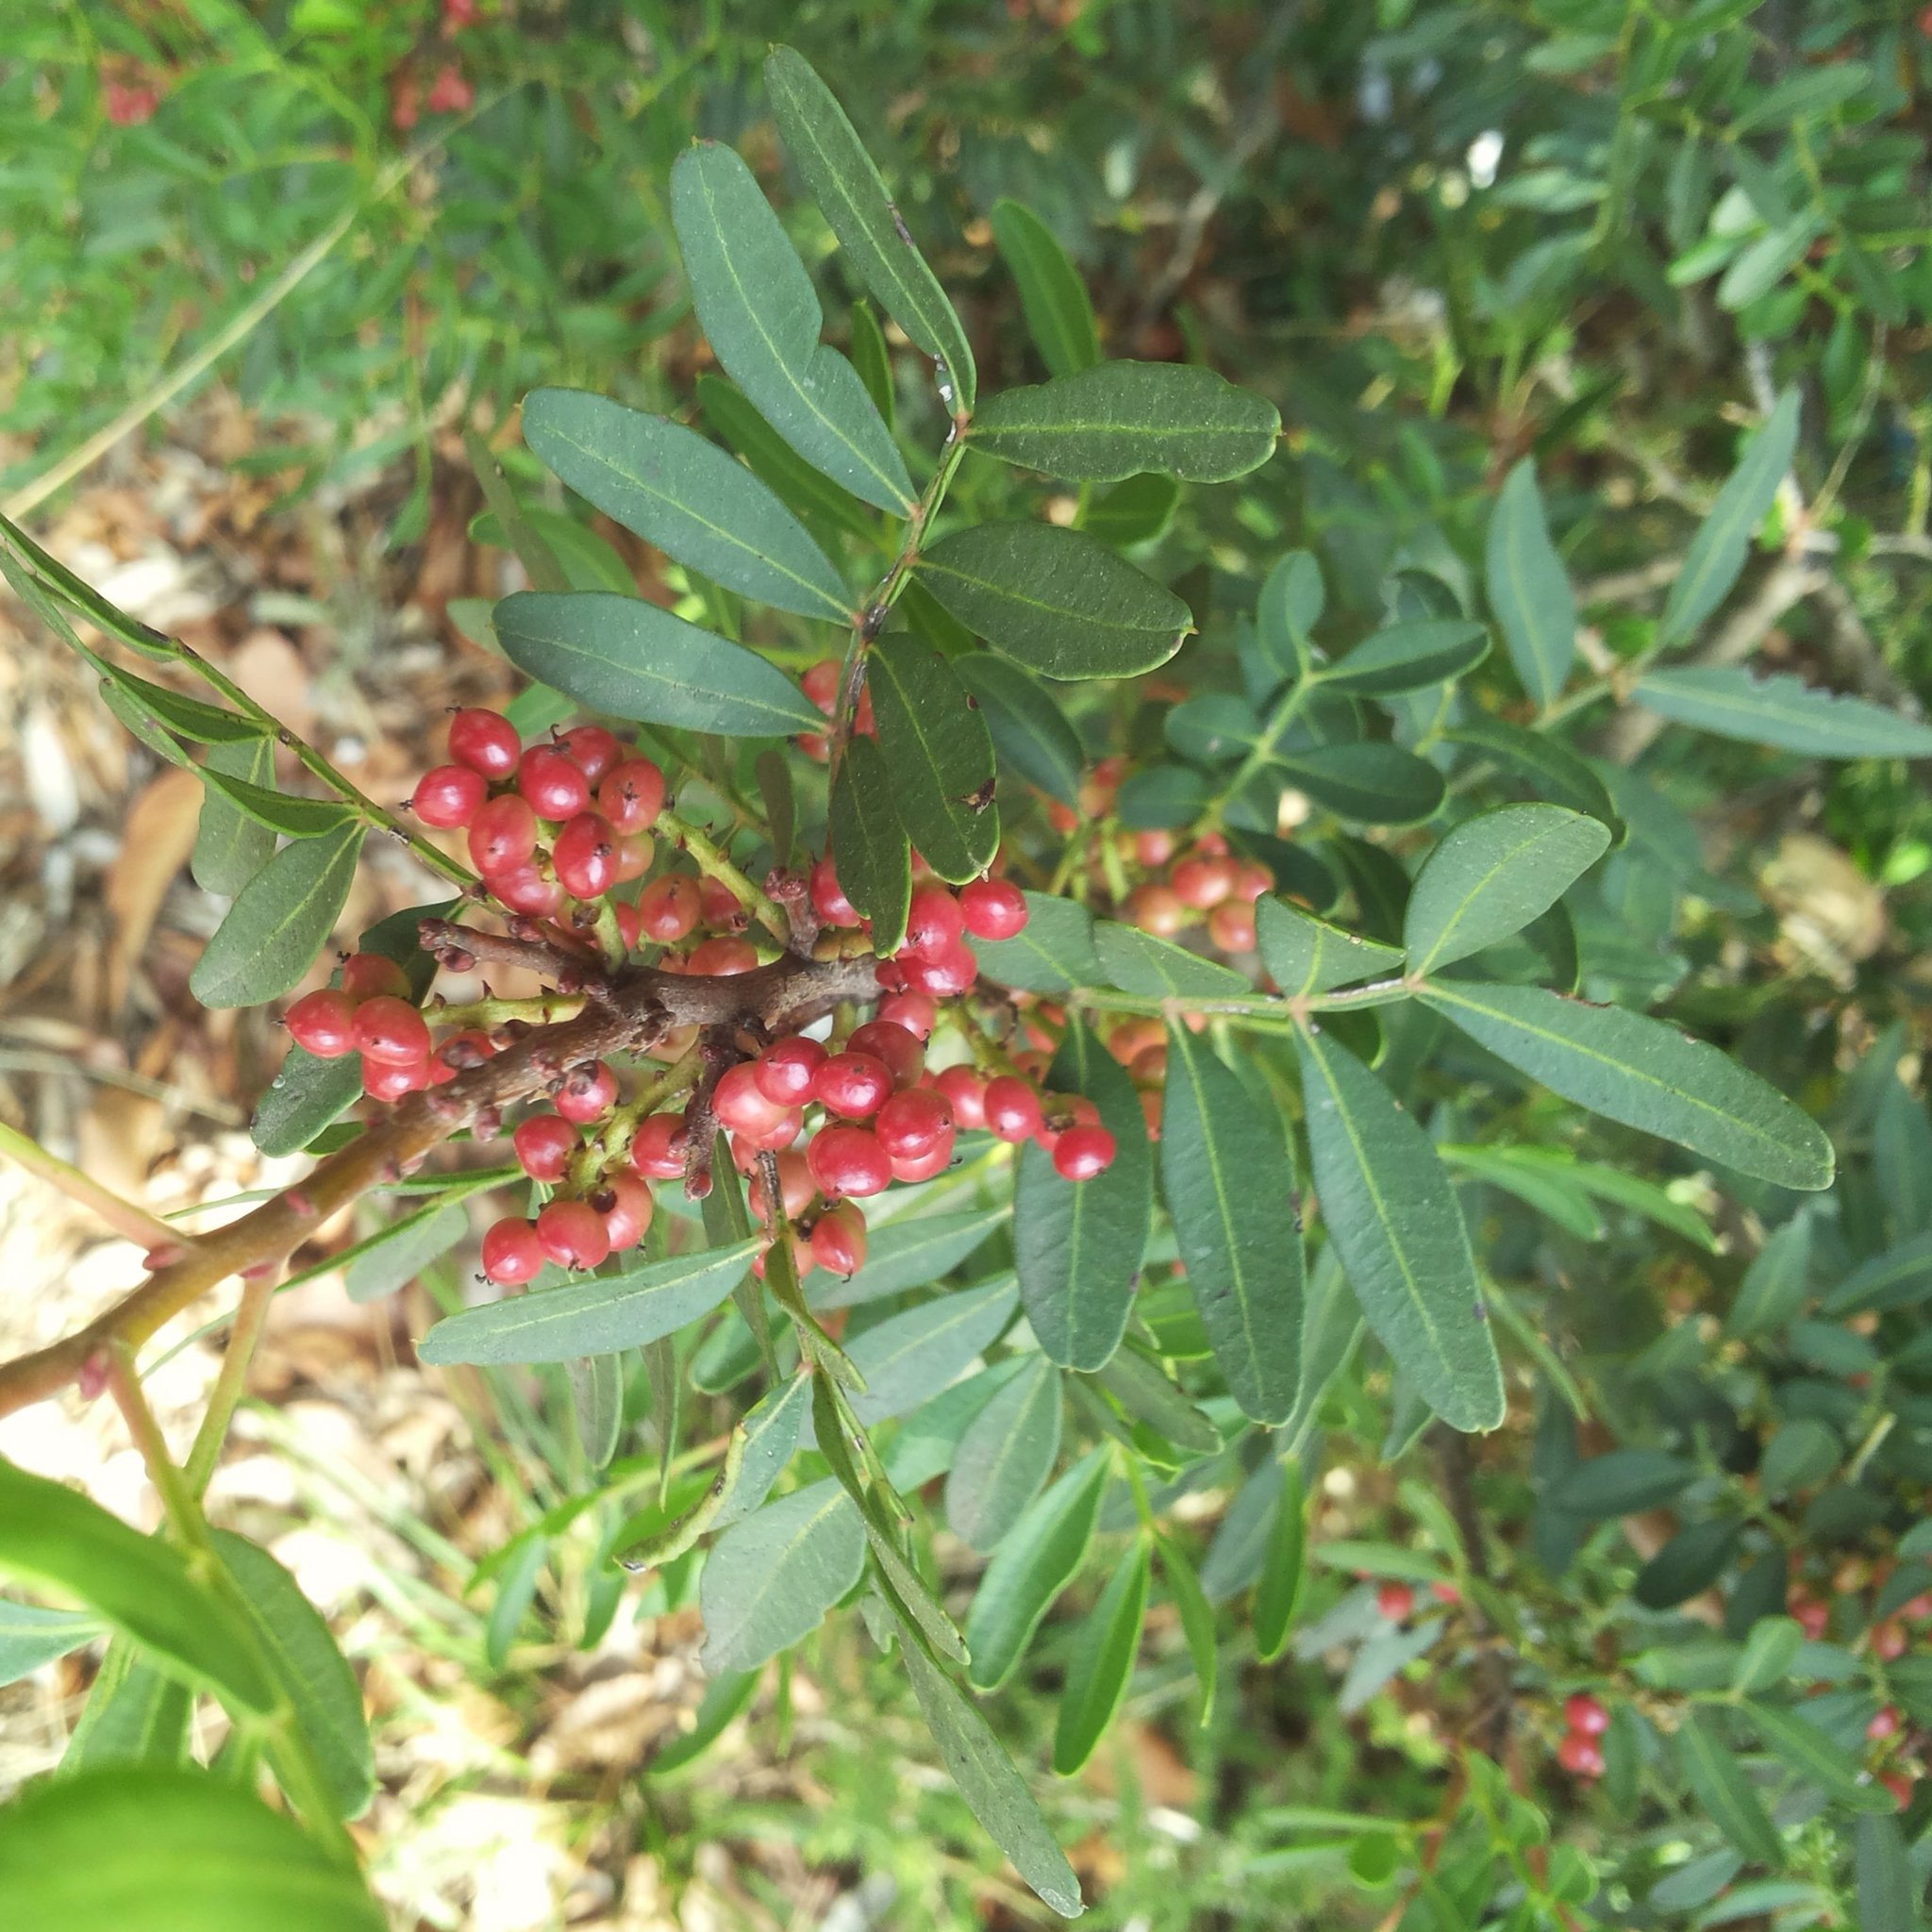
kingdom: Plantae
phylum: Tracheophyta
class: Magnoliopsida
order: Sapindales
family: Anacardiaceae
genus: Pistacia
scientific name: Pistacia lentiscus
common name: Lentisk
